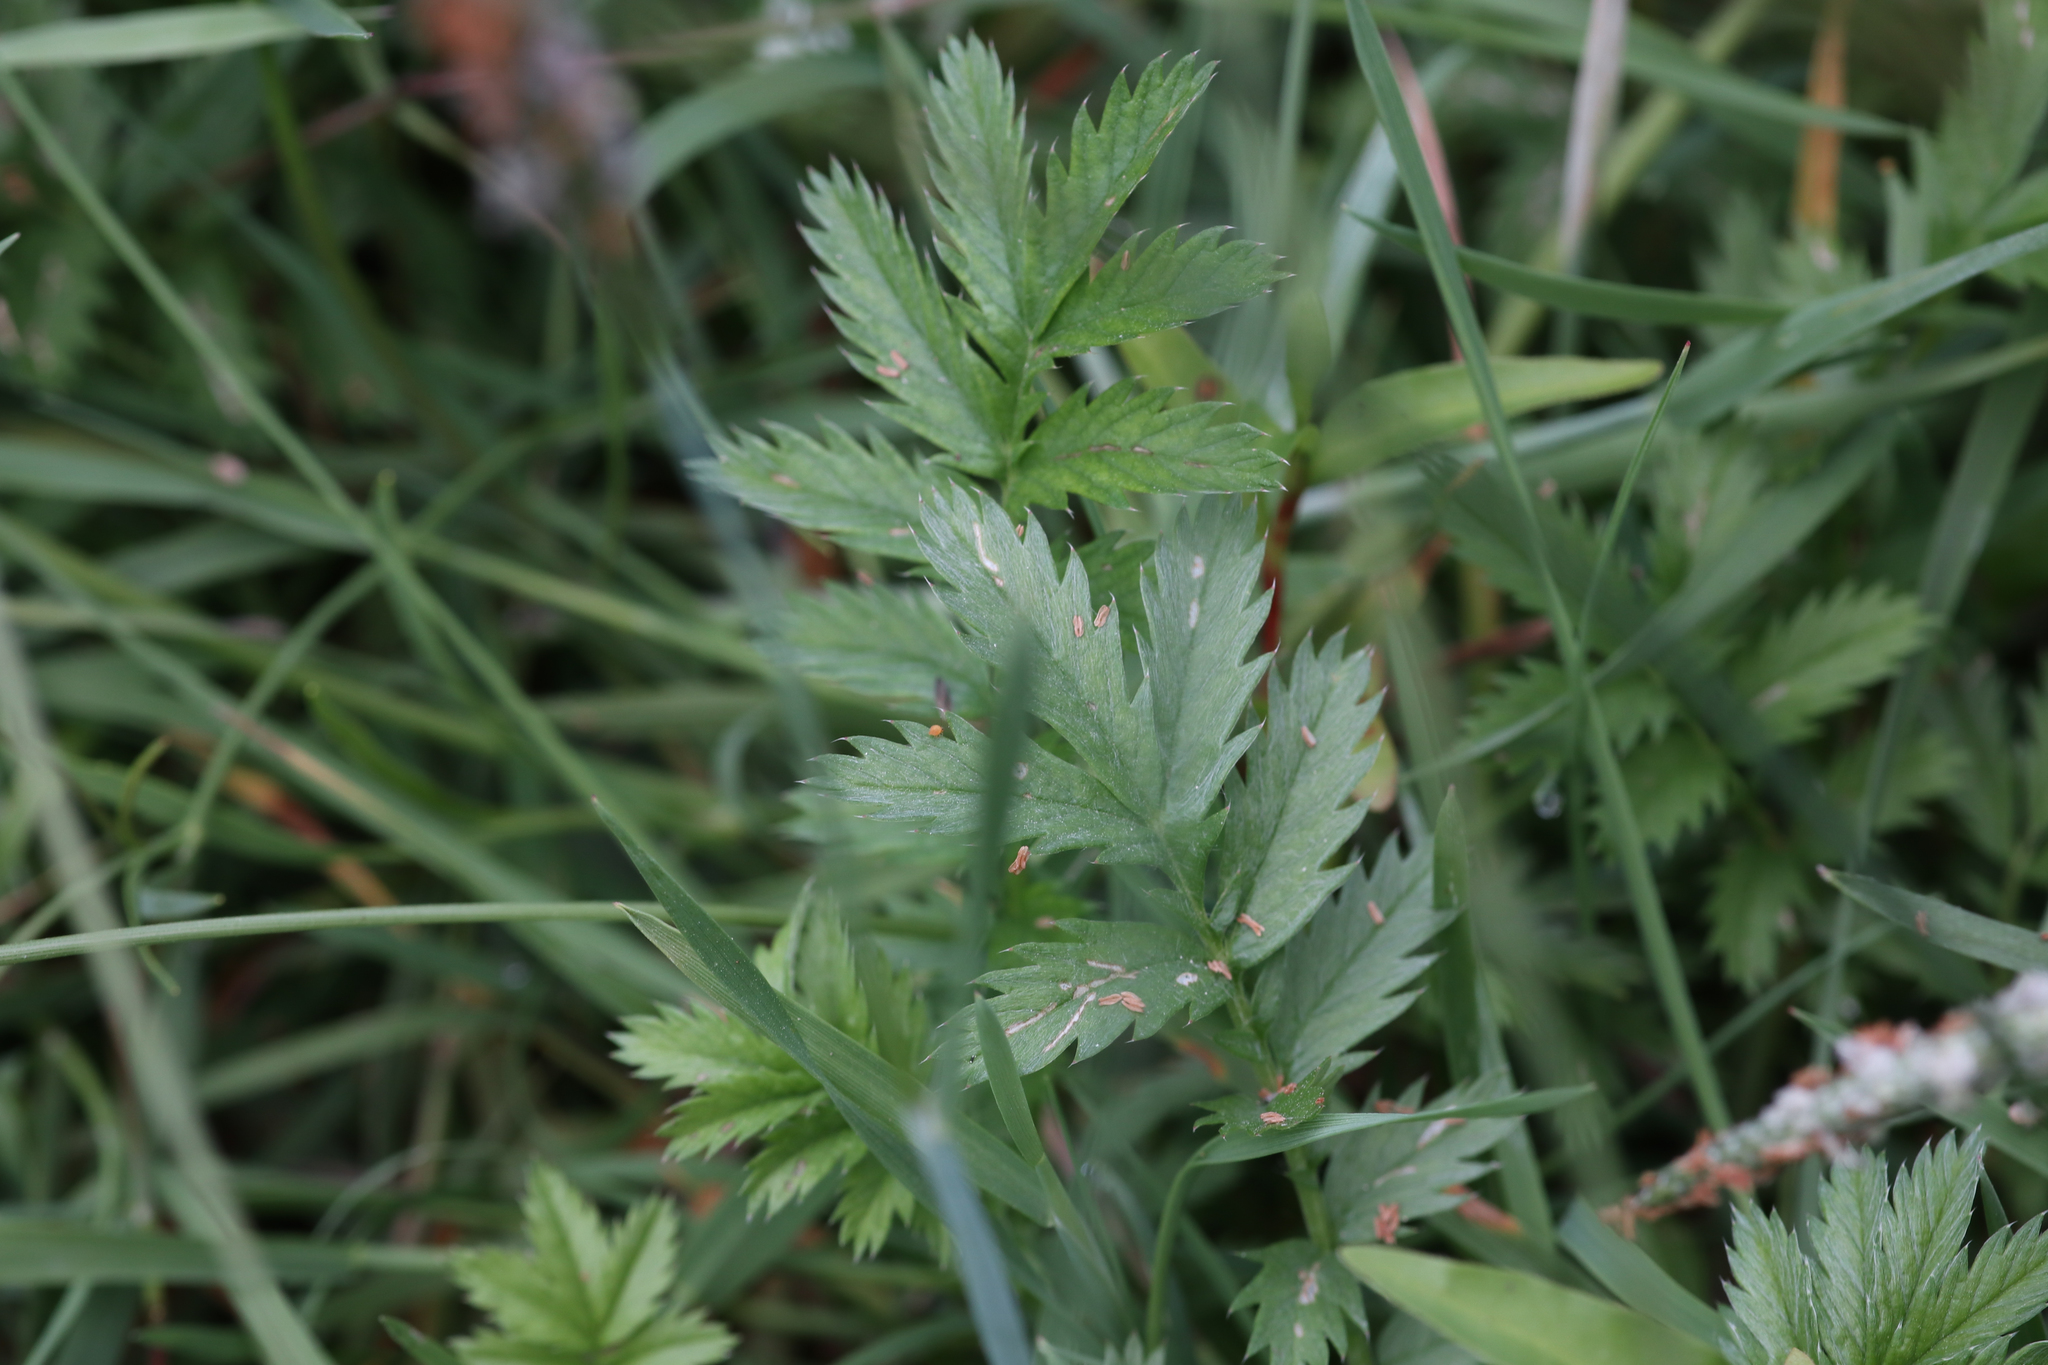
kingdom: Plantae
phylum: Tracheophyta
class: Magnoliopsida
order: Rosales
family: Rosaceae
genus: Argentina
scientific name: Argentina anserina
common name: Common silverweed
